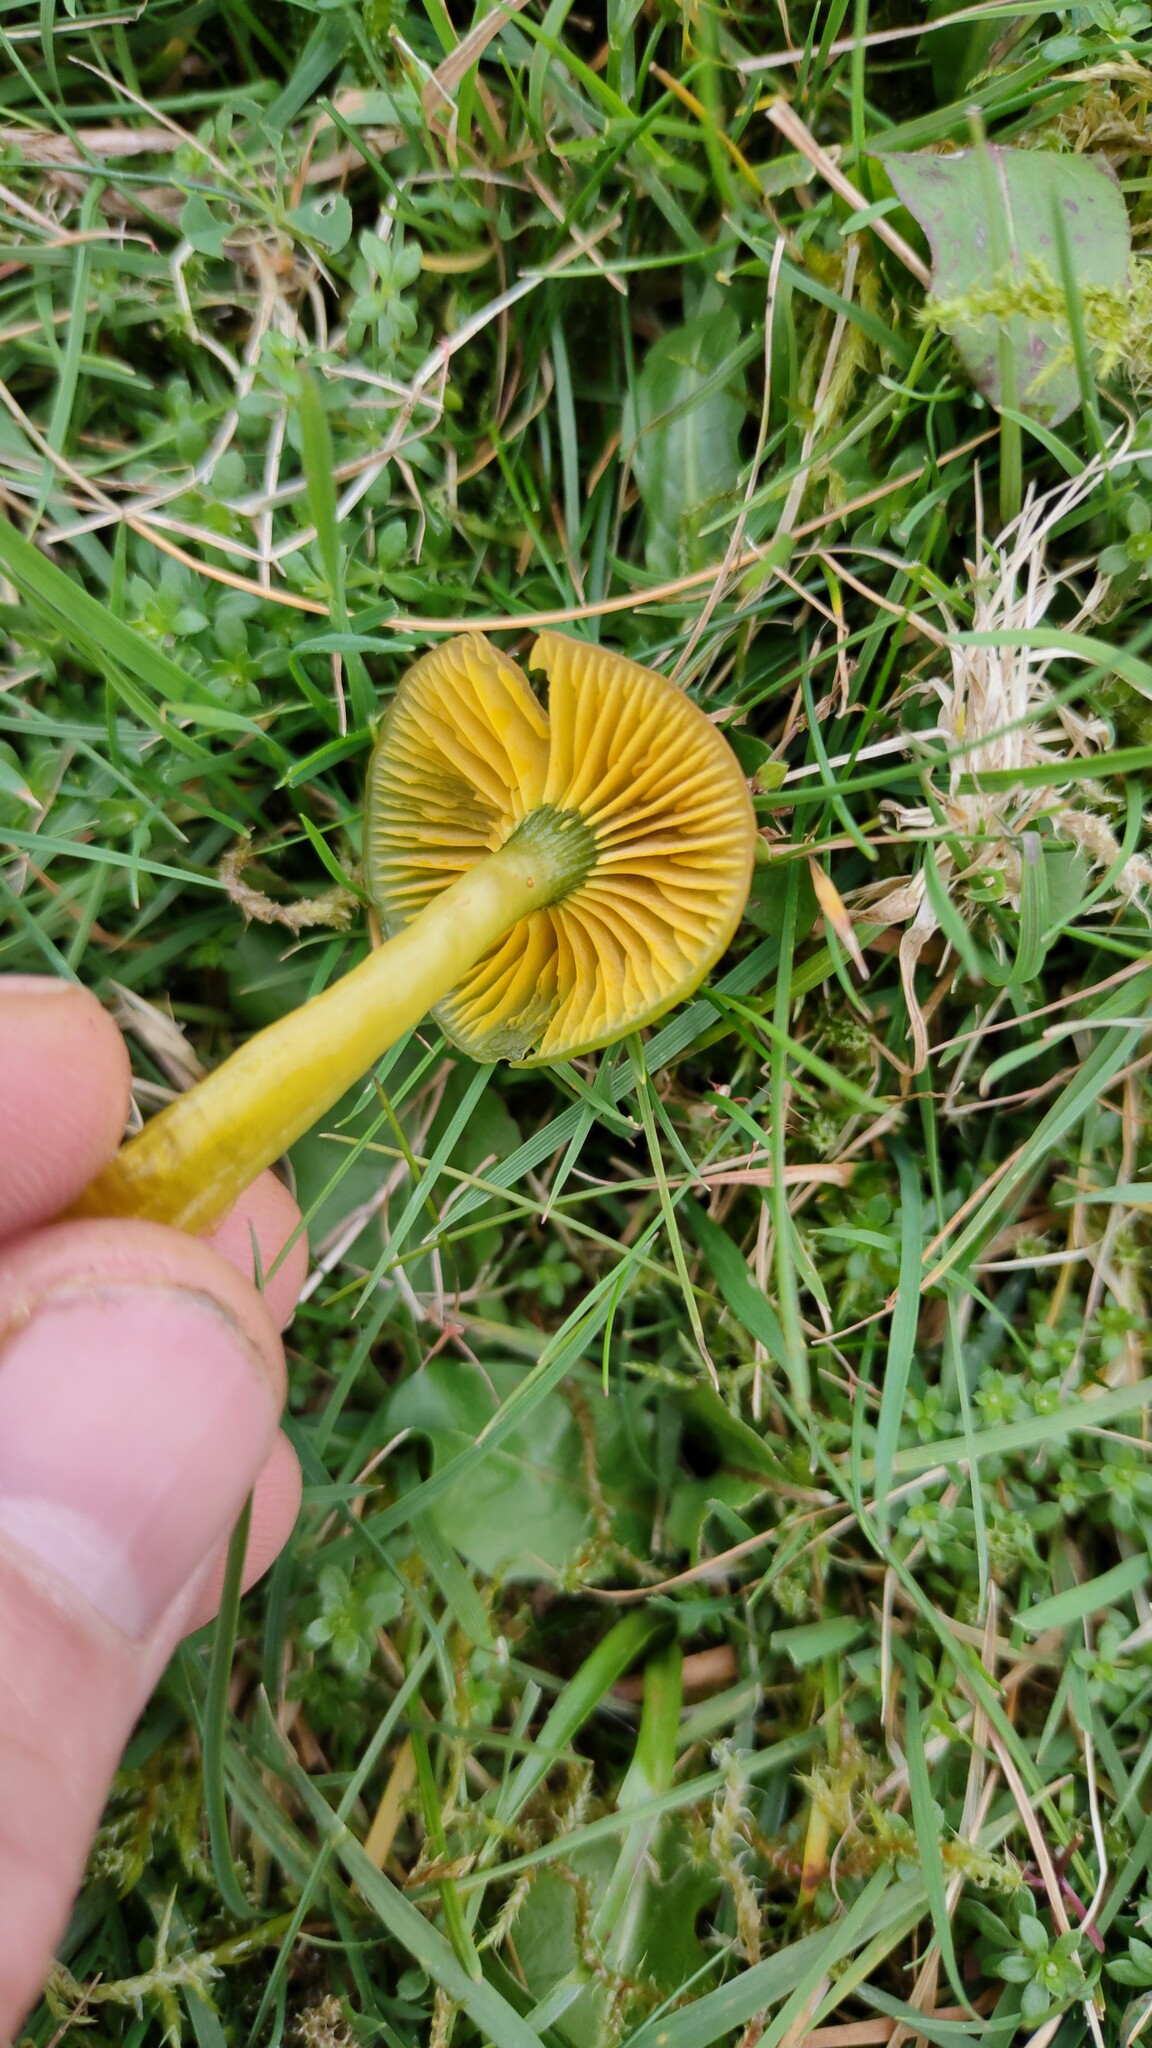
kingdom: Fungi
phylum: Basidiomycota
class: Agaricomycetes
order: Agaricales
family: Hygrophoraceae
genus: Gliophorus
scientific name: Gliophorus psittacinus
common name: Parrot wax-cap
